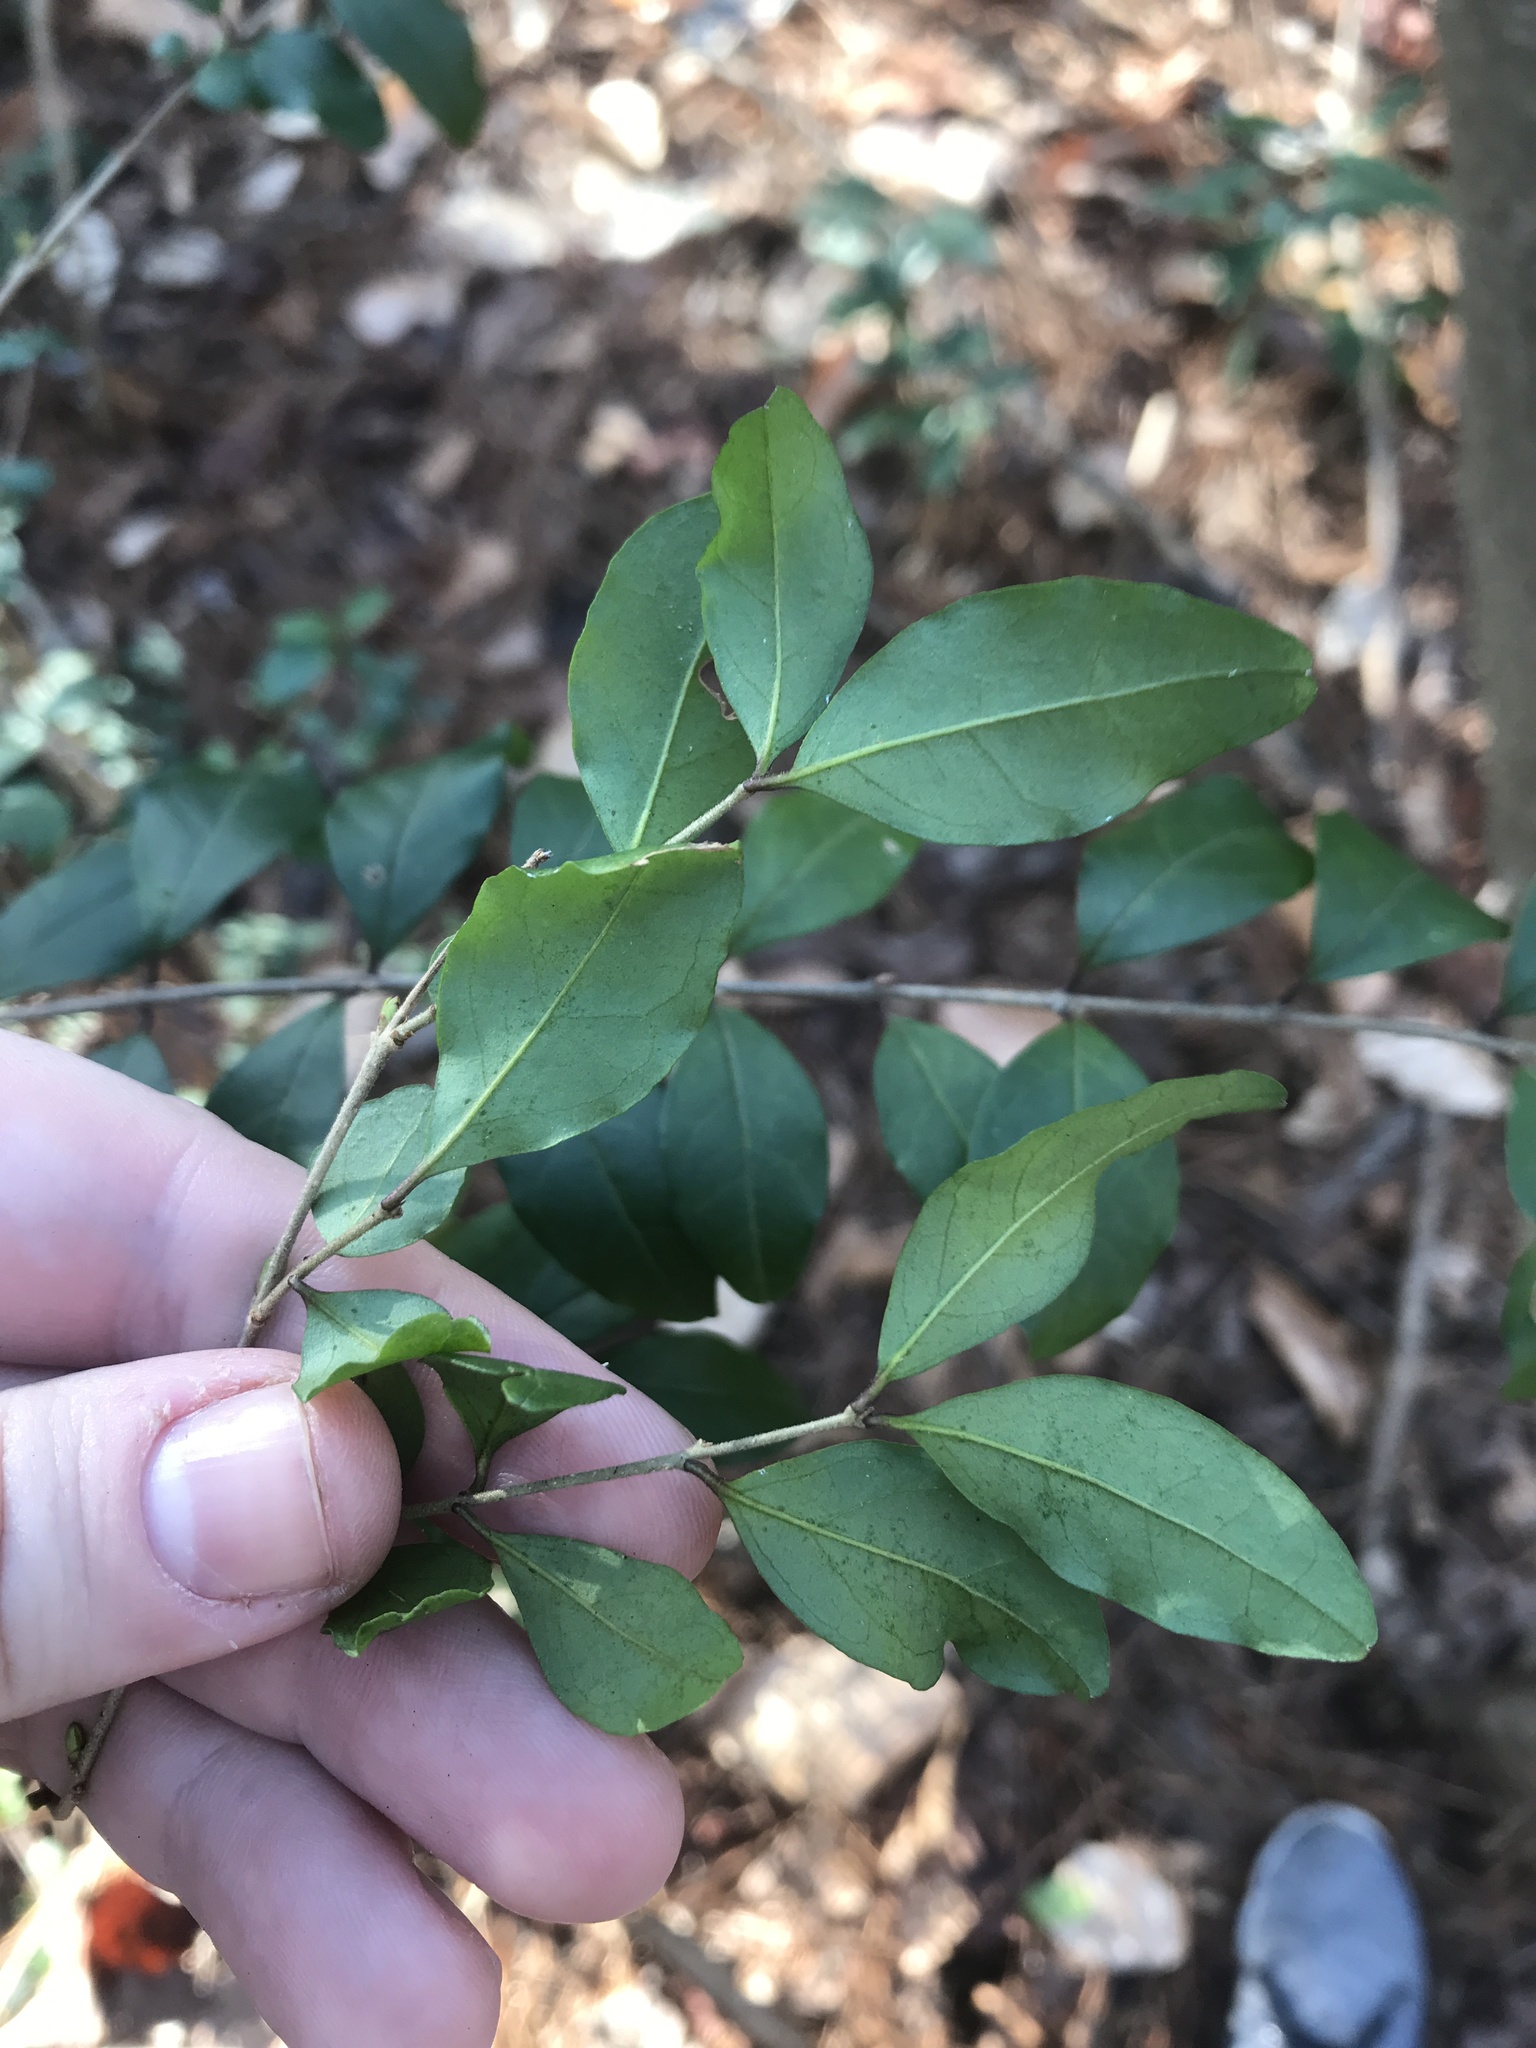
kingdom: Plantae
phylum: Tracheophyta
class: Magnoliopsida
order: Lamiales
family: Oleaceae
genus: Ligustrum
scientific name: Ligustrum sinense
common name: Chinese privet
